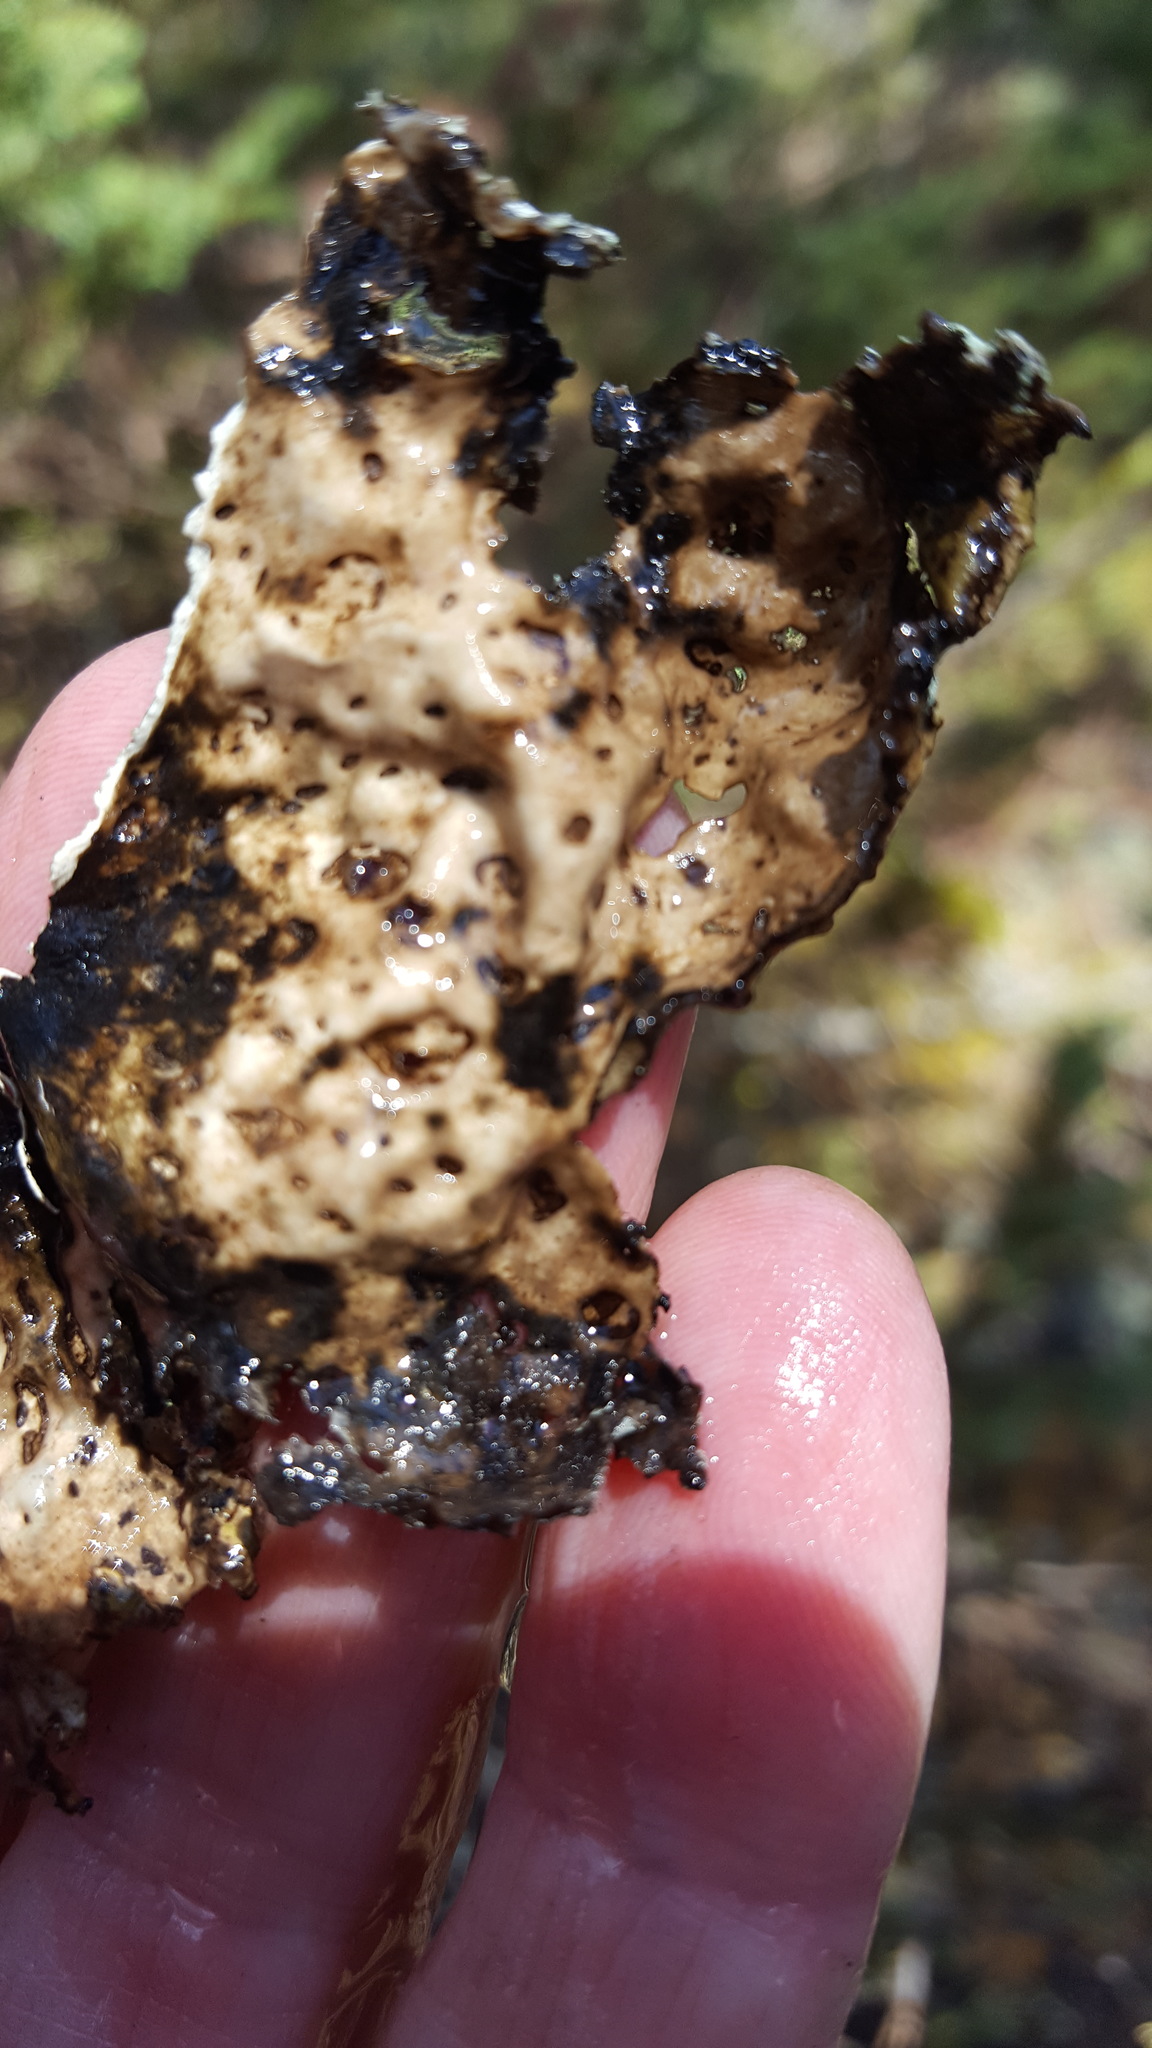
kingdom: Fungi
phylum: Ascomycota
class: Lecanoromycetes
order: Umbilicariales
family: Umbilicariaceae
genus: Lasallia
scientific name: Lasallia papulosa
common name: Common toadskin lichen
